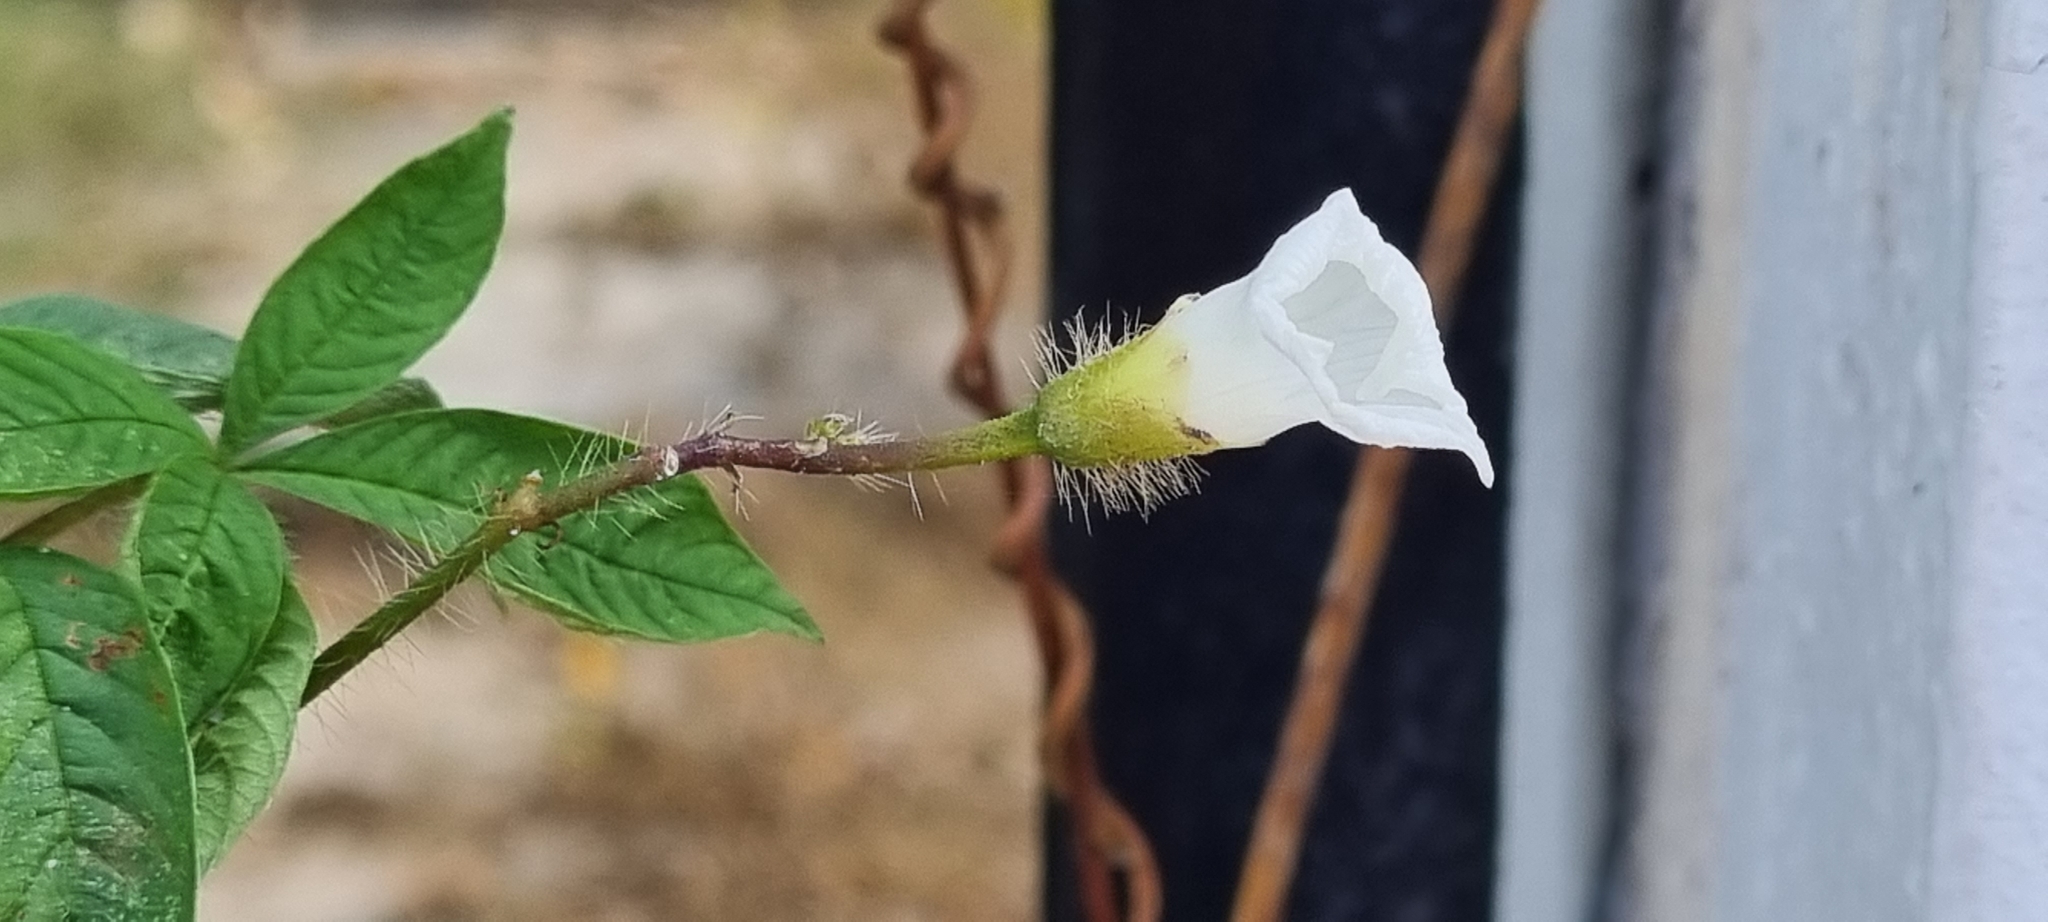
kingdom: Plantae
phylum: Tracheophyta
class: Magnoliopsida
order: Solanales
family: Convolvulaceae
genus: Distimake
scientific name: Distimake aegyptius
